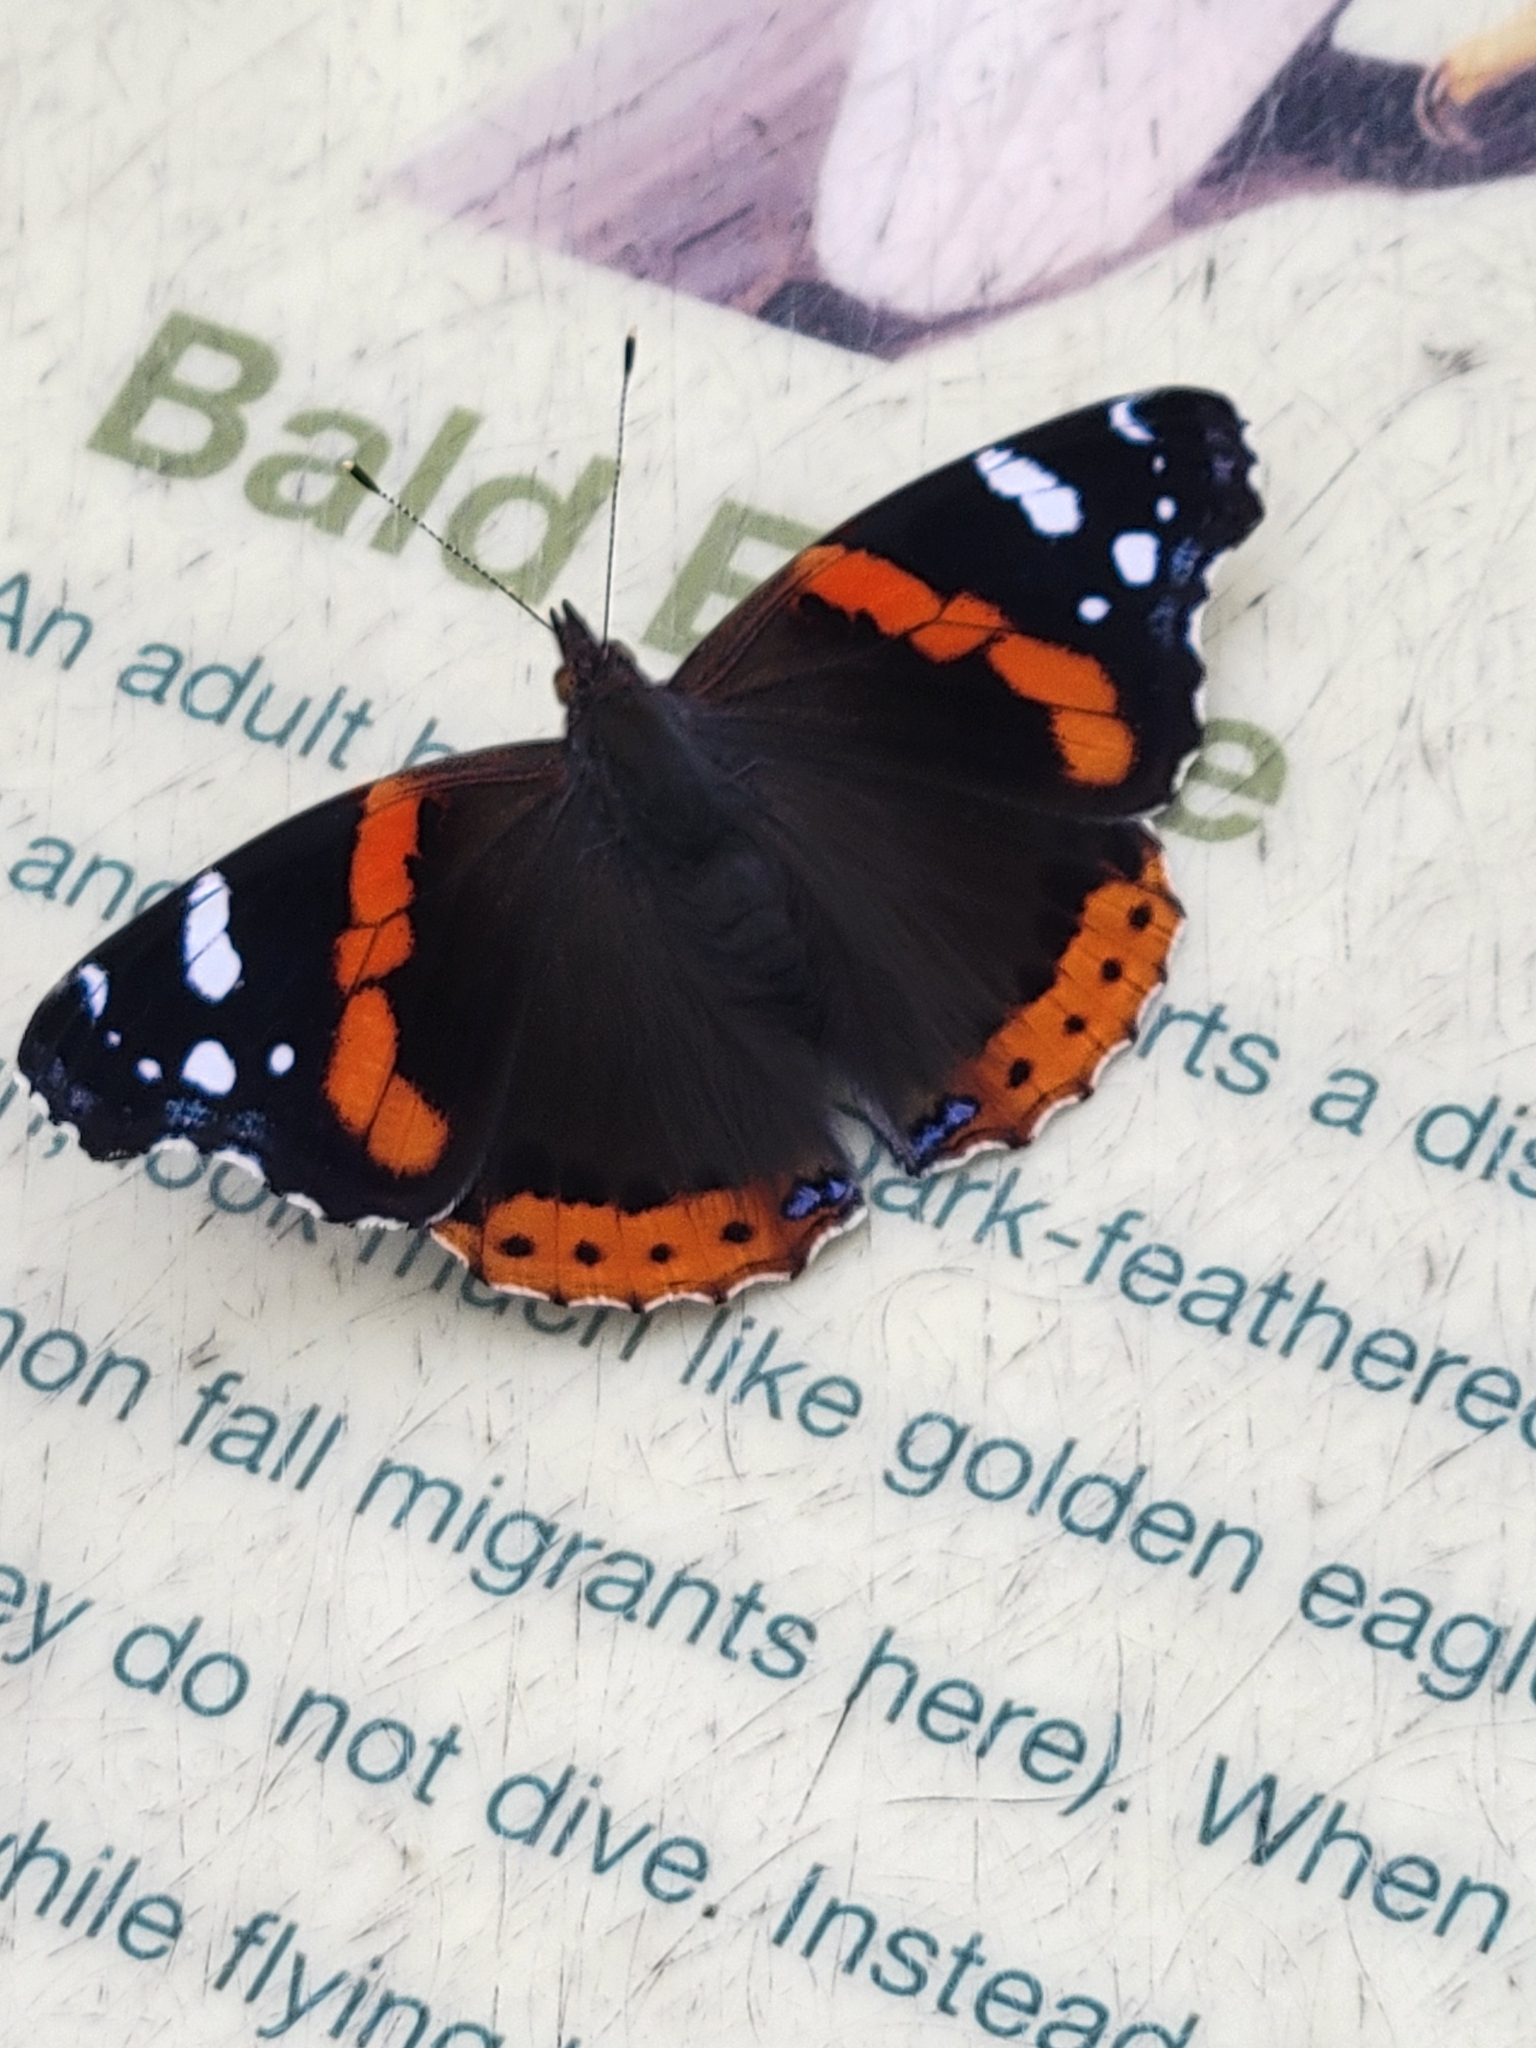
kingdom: Animalia
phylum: Arthropoda
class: Insecta
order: Lepidoptera
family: Nymphalidae
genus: Vanessa
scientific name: Vanessa atalanta
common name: Red admiral
